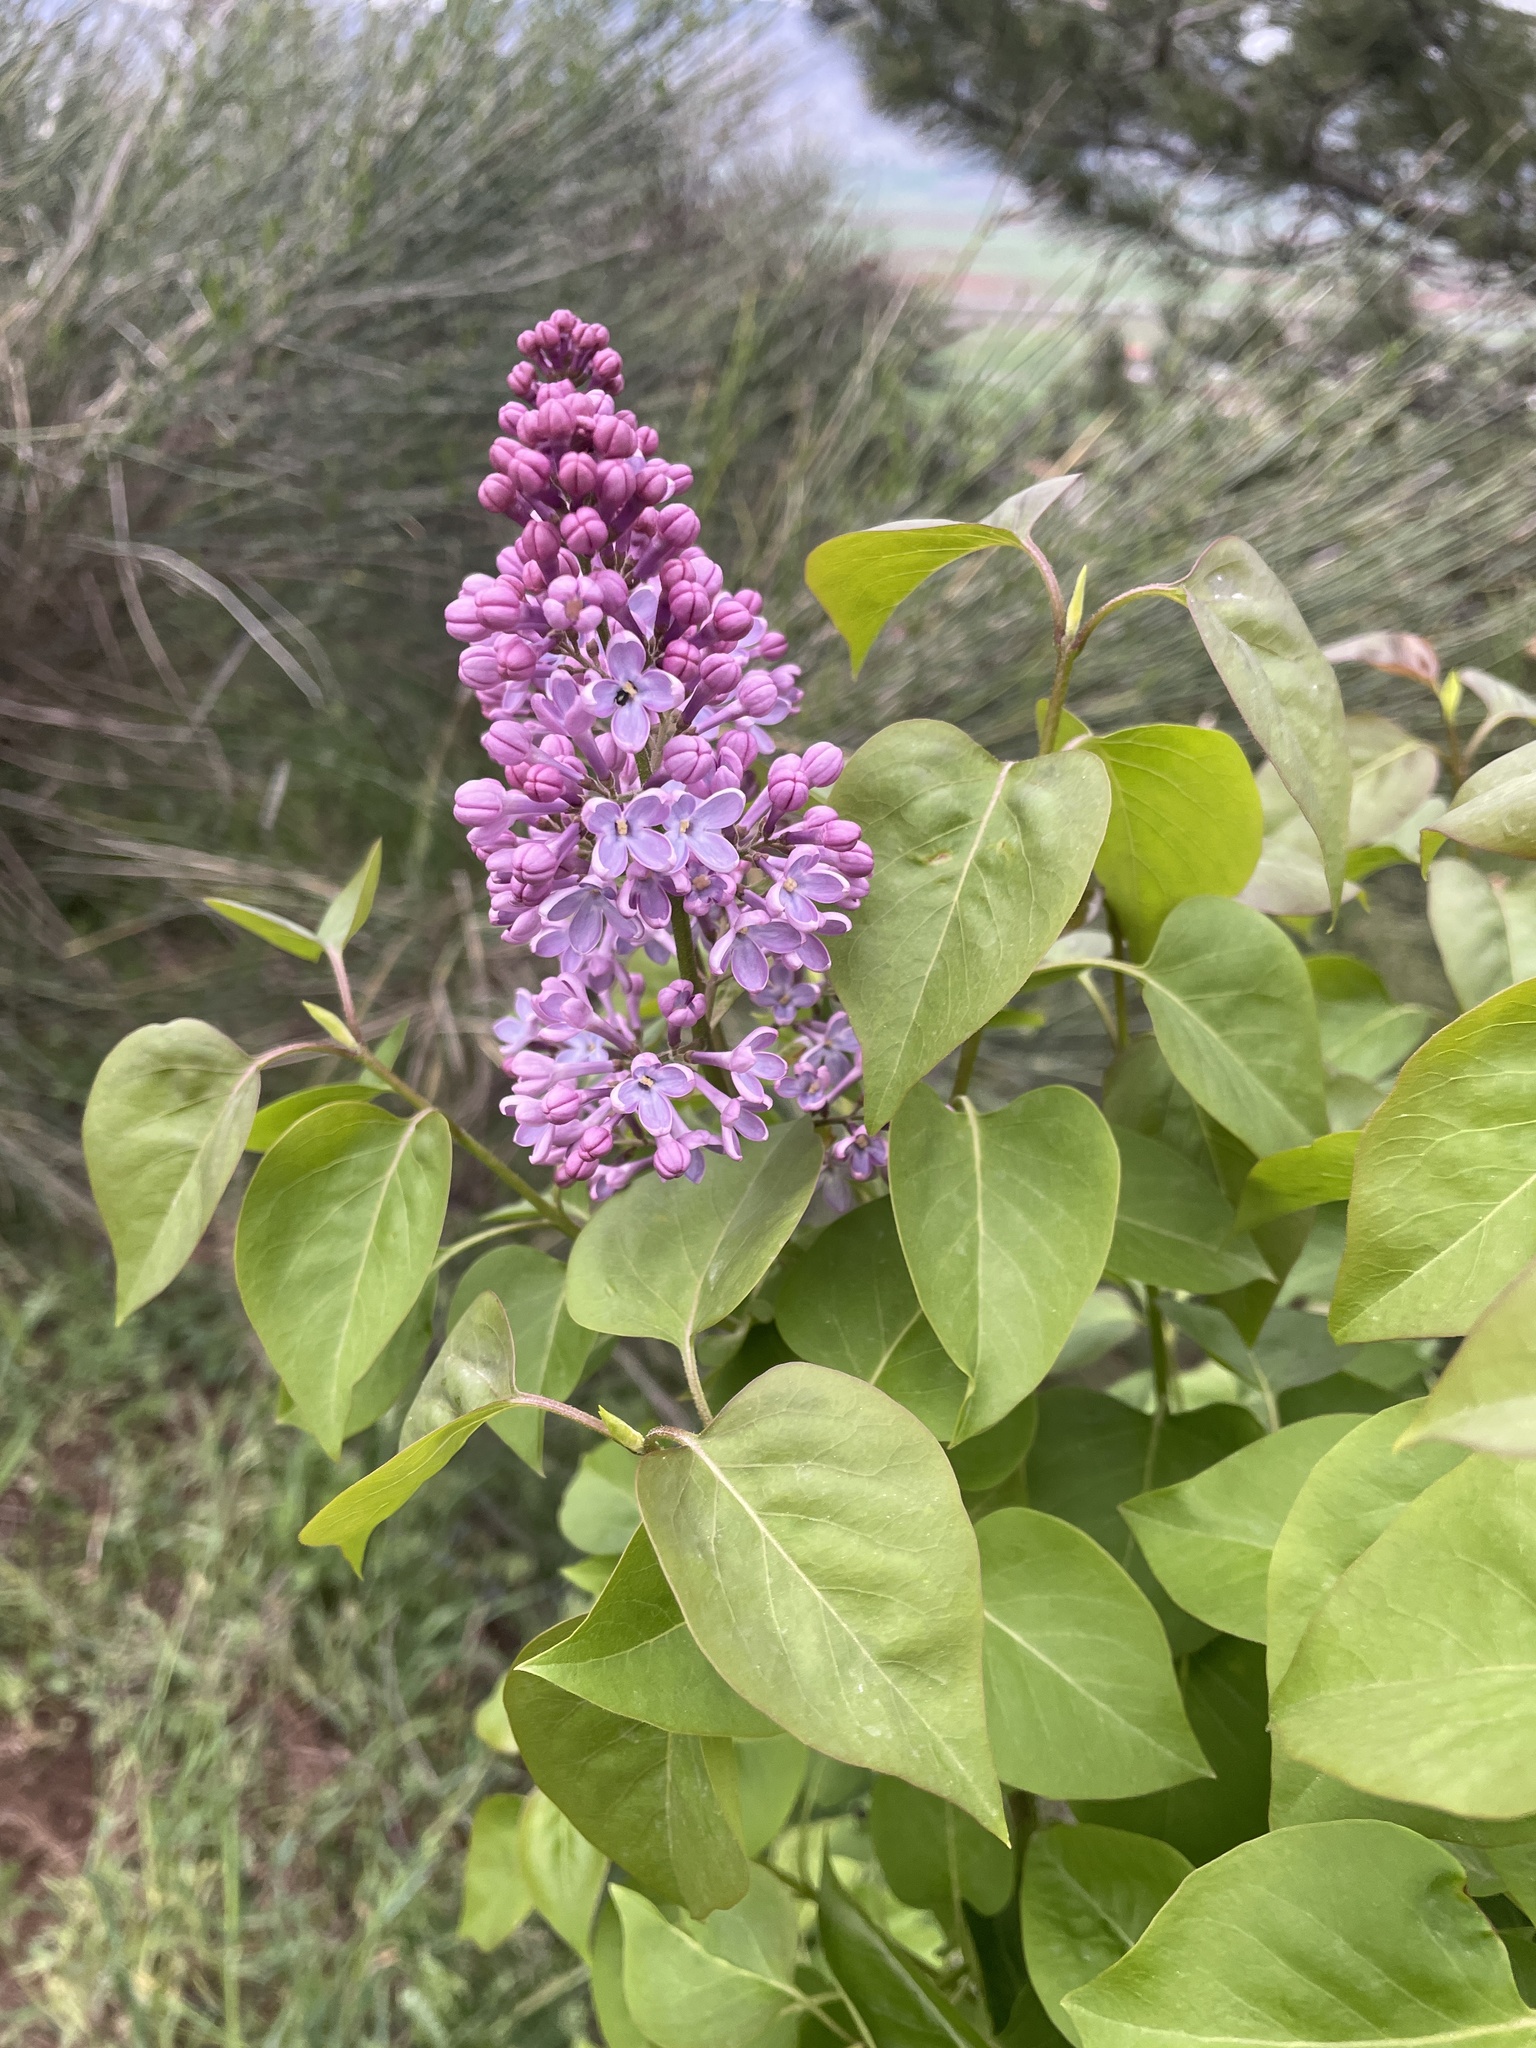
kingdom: Plantae
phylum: Tracheophyta
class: Magnoliopsida
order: Lamiales
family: Oleaceae
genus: Syringa
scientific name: Syringa vulgaris
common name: Common lilac
